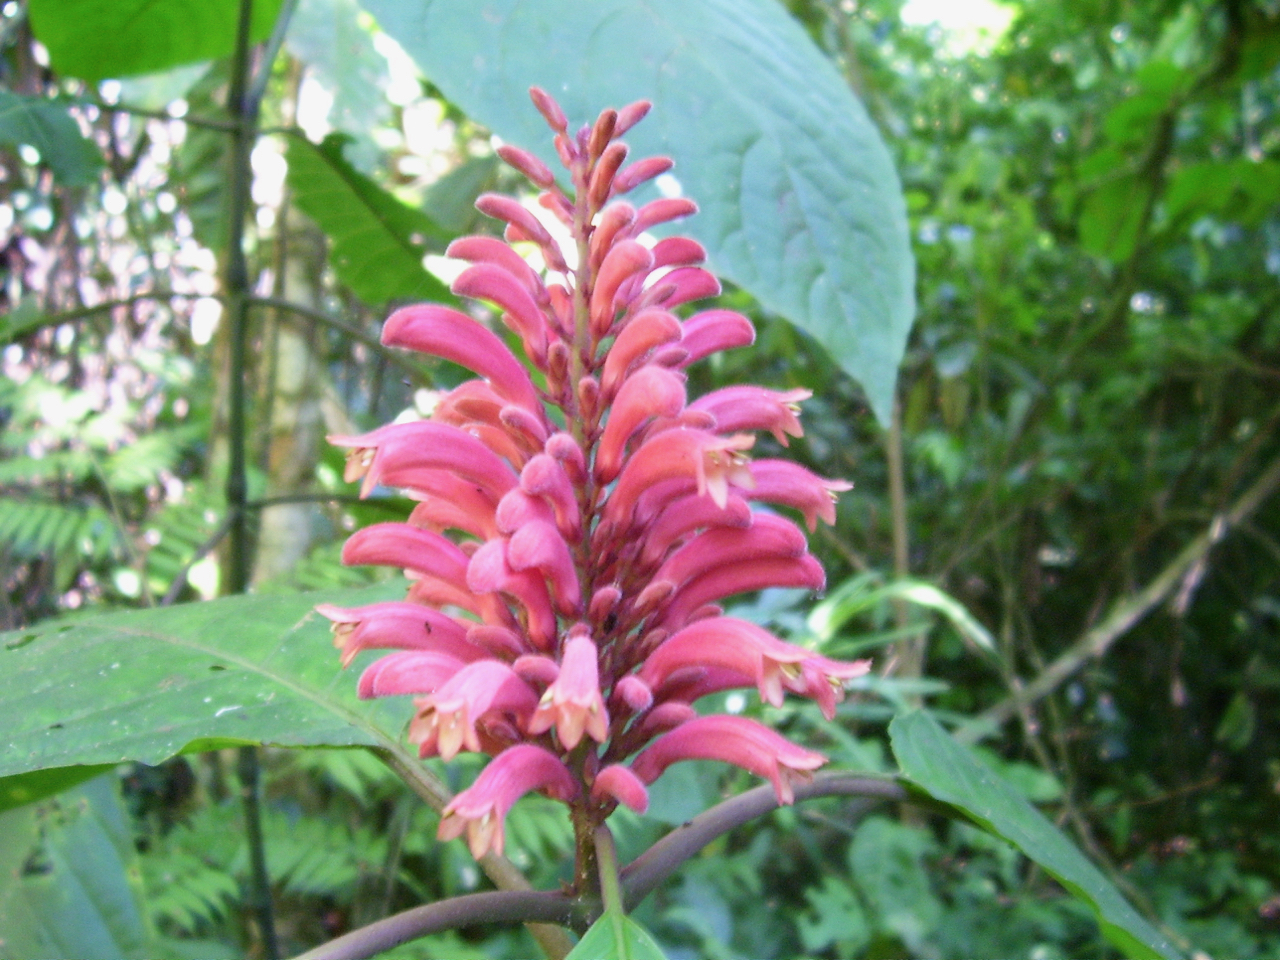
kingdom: Plantae
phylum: Tracheophyta
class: Magnoliopsida
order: Lamiales
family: Acanthaceae
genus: Phlogacanthus
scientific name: Phlogacanthus curviflorus
